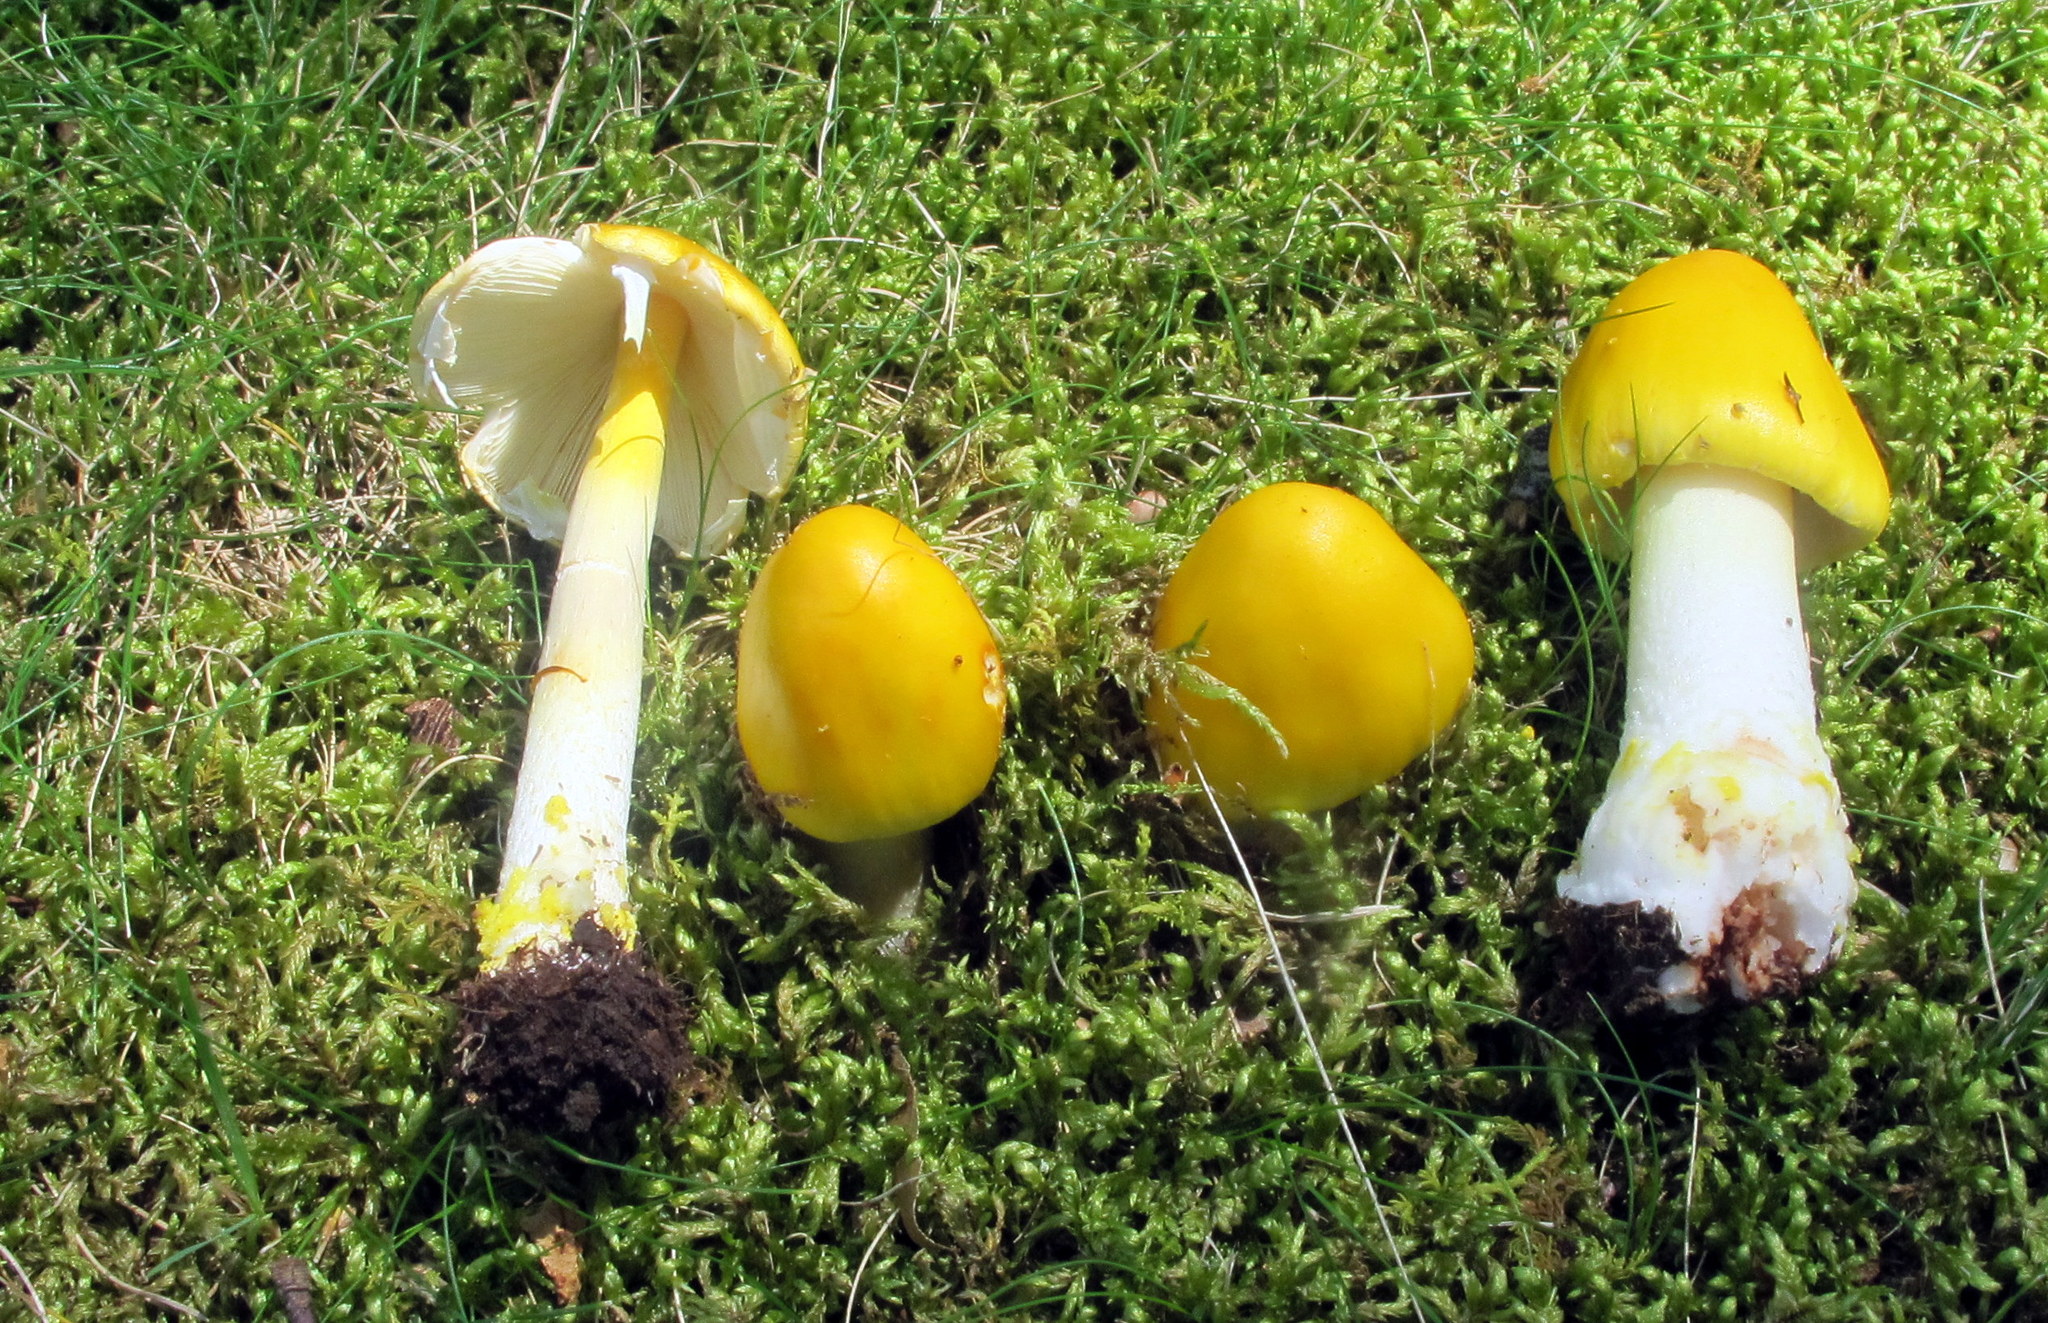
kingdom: Fungi
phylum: Basidiomycota
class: Agaricomycetes
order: Agaricales
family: Amanitaceae
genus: Amanita
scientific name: Amanita flavorubens
